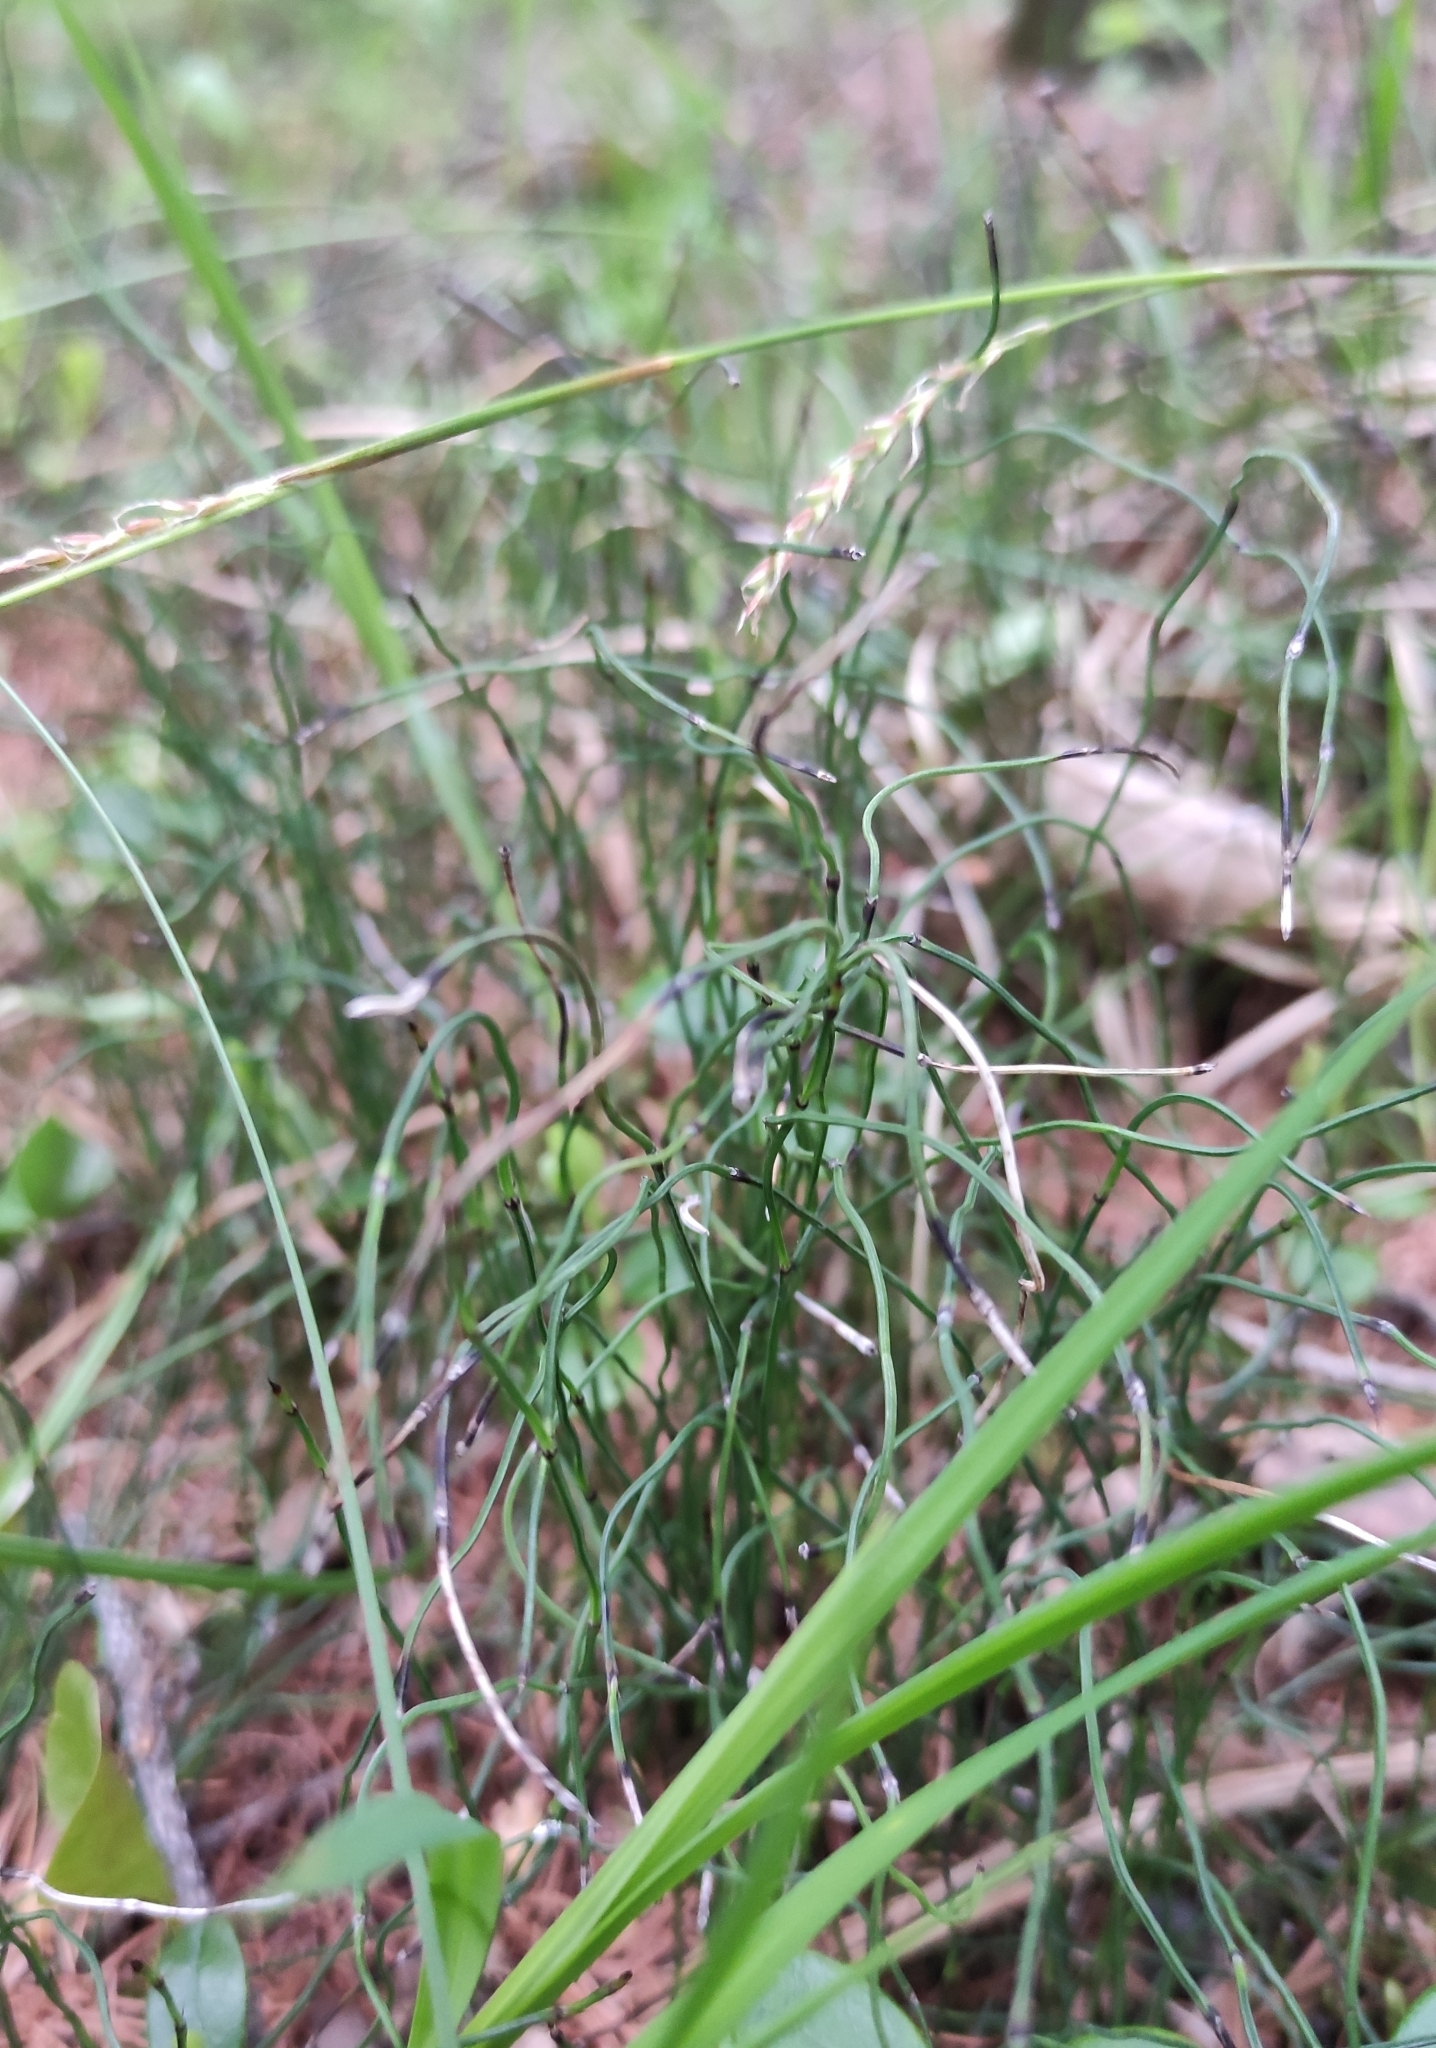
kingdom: Plantae
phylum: Tracheophyta
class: Polypodiopsida
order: Equisetales
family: Equisetaceae
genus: Equisetum
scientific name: Equisetum scirpoides
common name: Delicate horsetail
